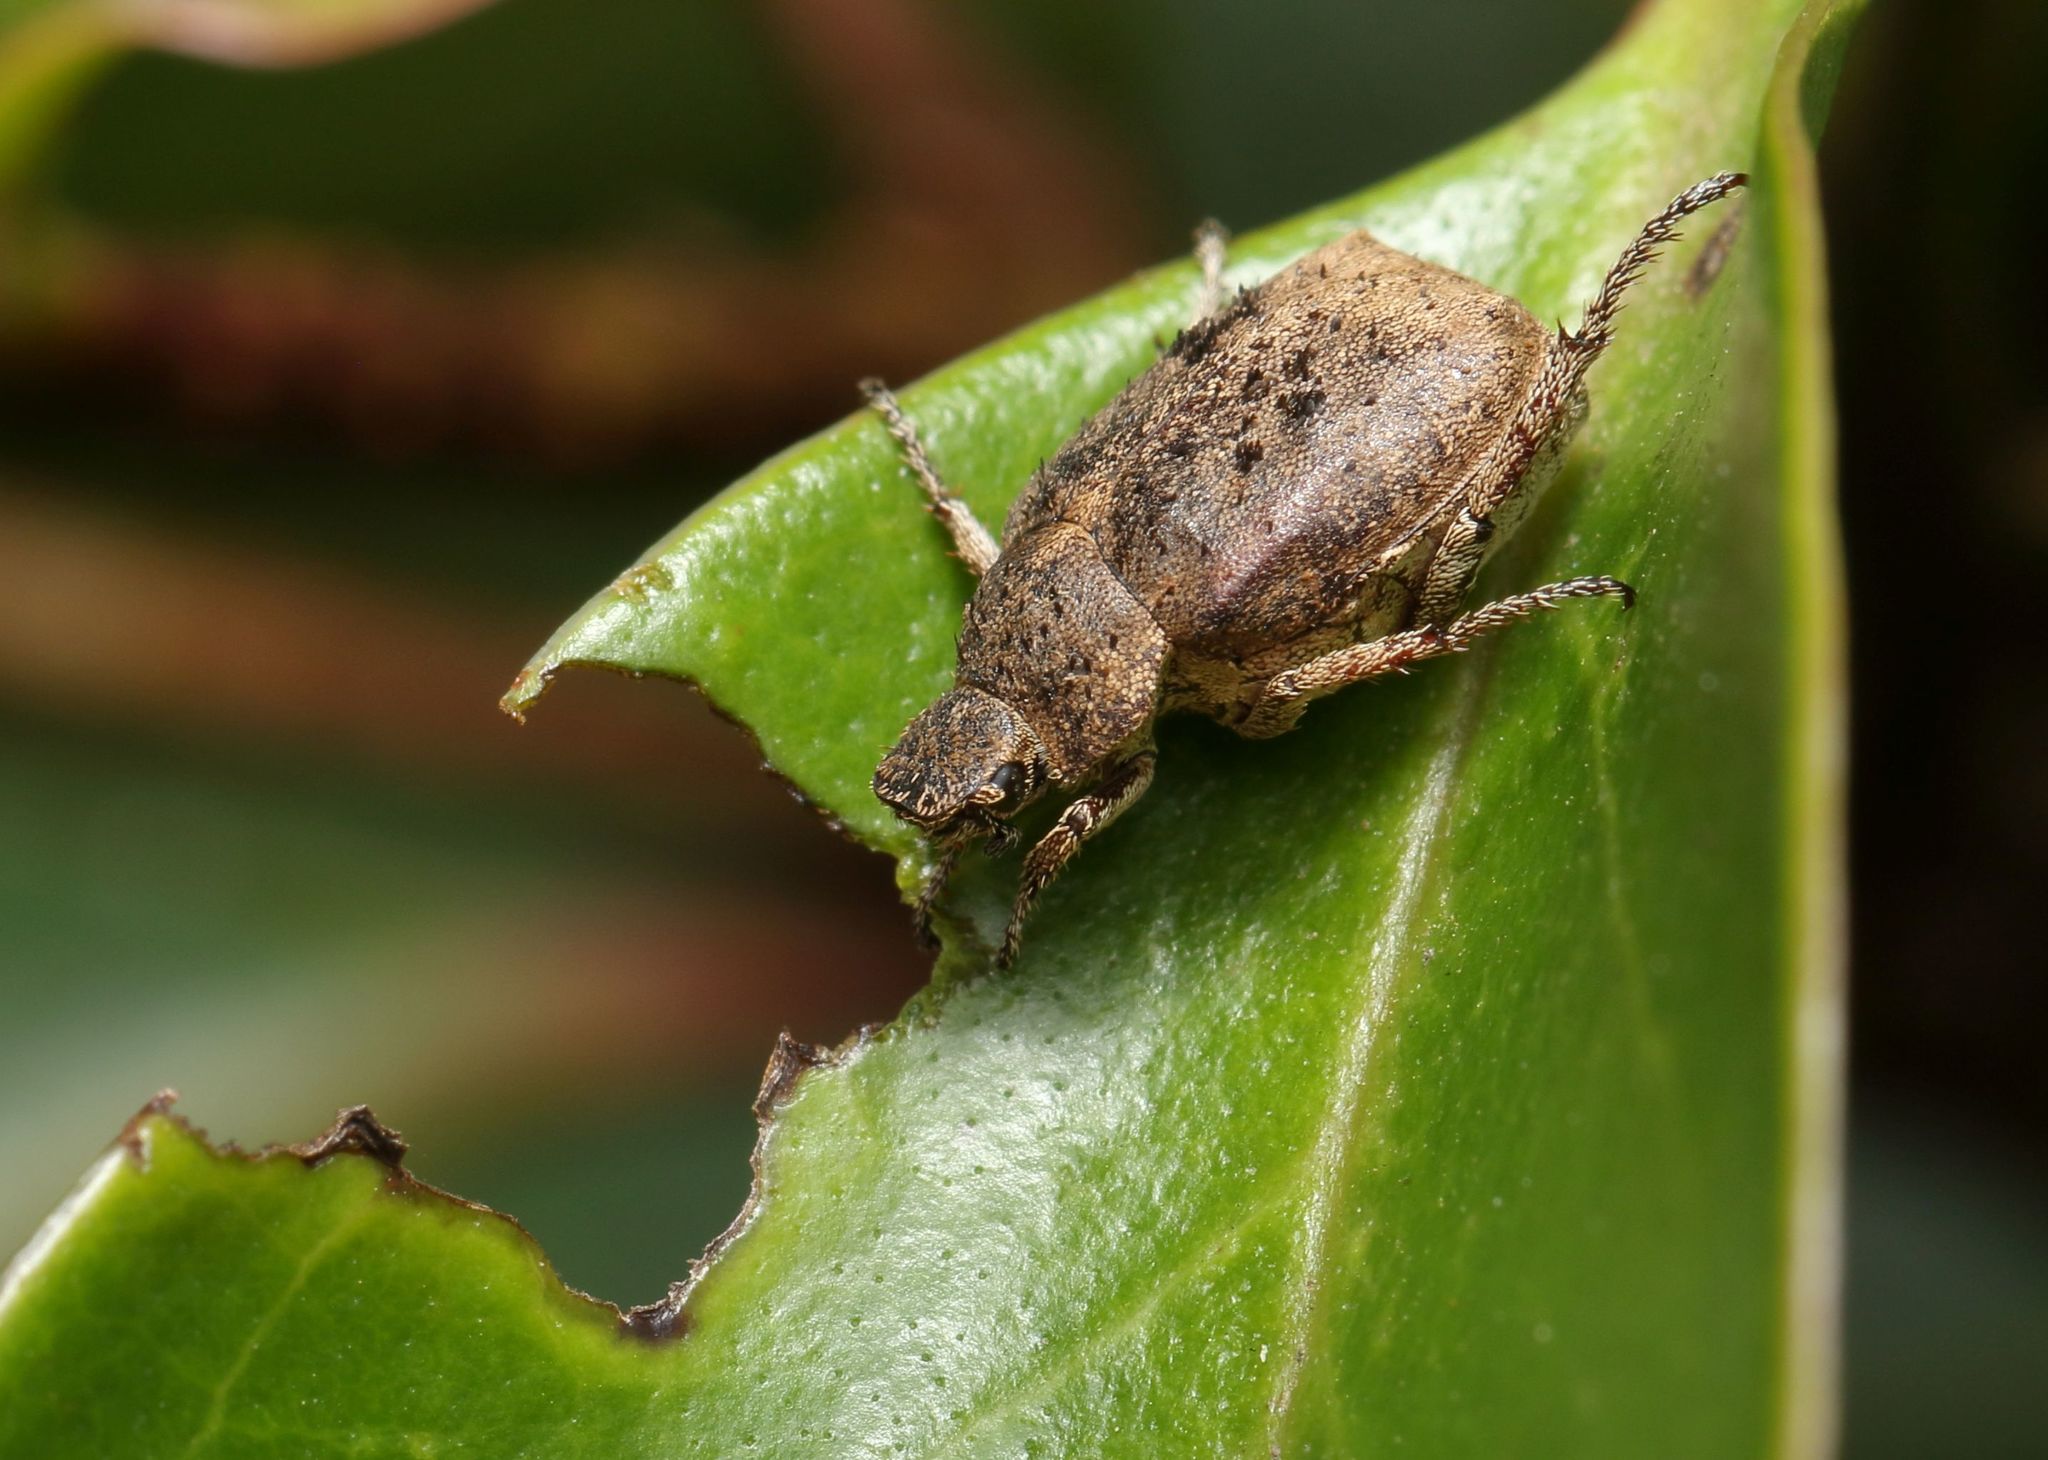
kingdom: Animalia
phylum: Arthropoda
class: Insecta
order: Coleoptera
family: Scarabaeidae
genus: Hoplia
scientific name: Hoplia sordida
